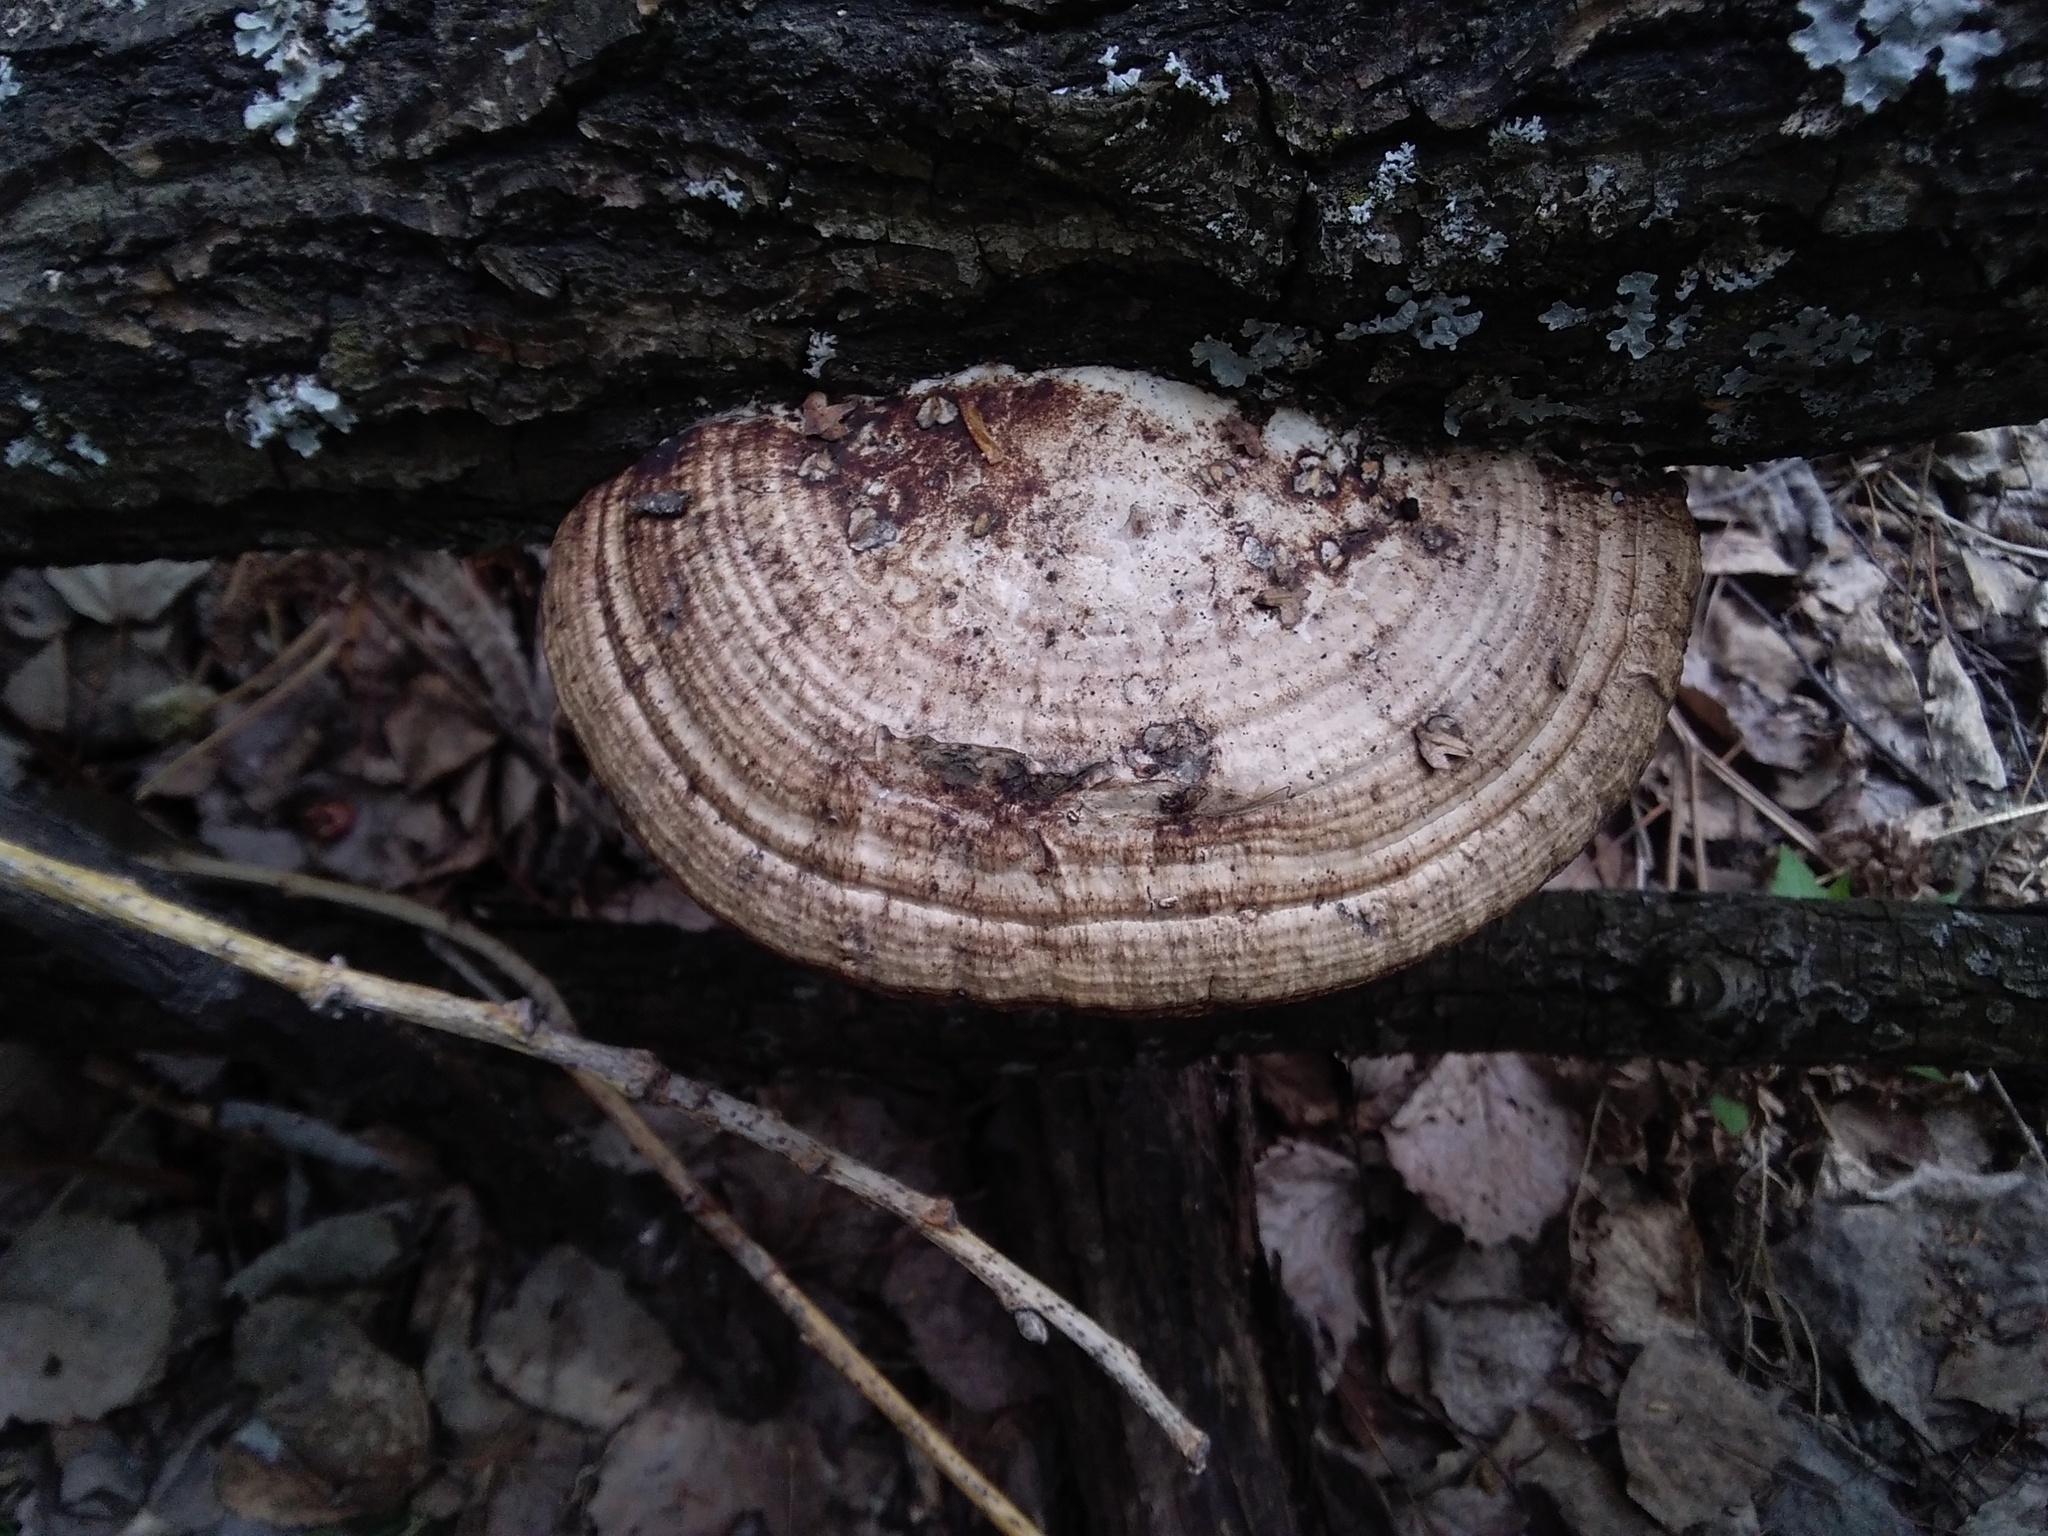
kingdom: Fungi
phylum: Basidiomycota
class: Agaricomycetes
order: Polyporales
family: Polyporaceae
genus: Daedaleopsis
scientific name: Daedaleopsis confragosa
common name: Blushing bracket
